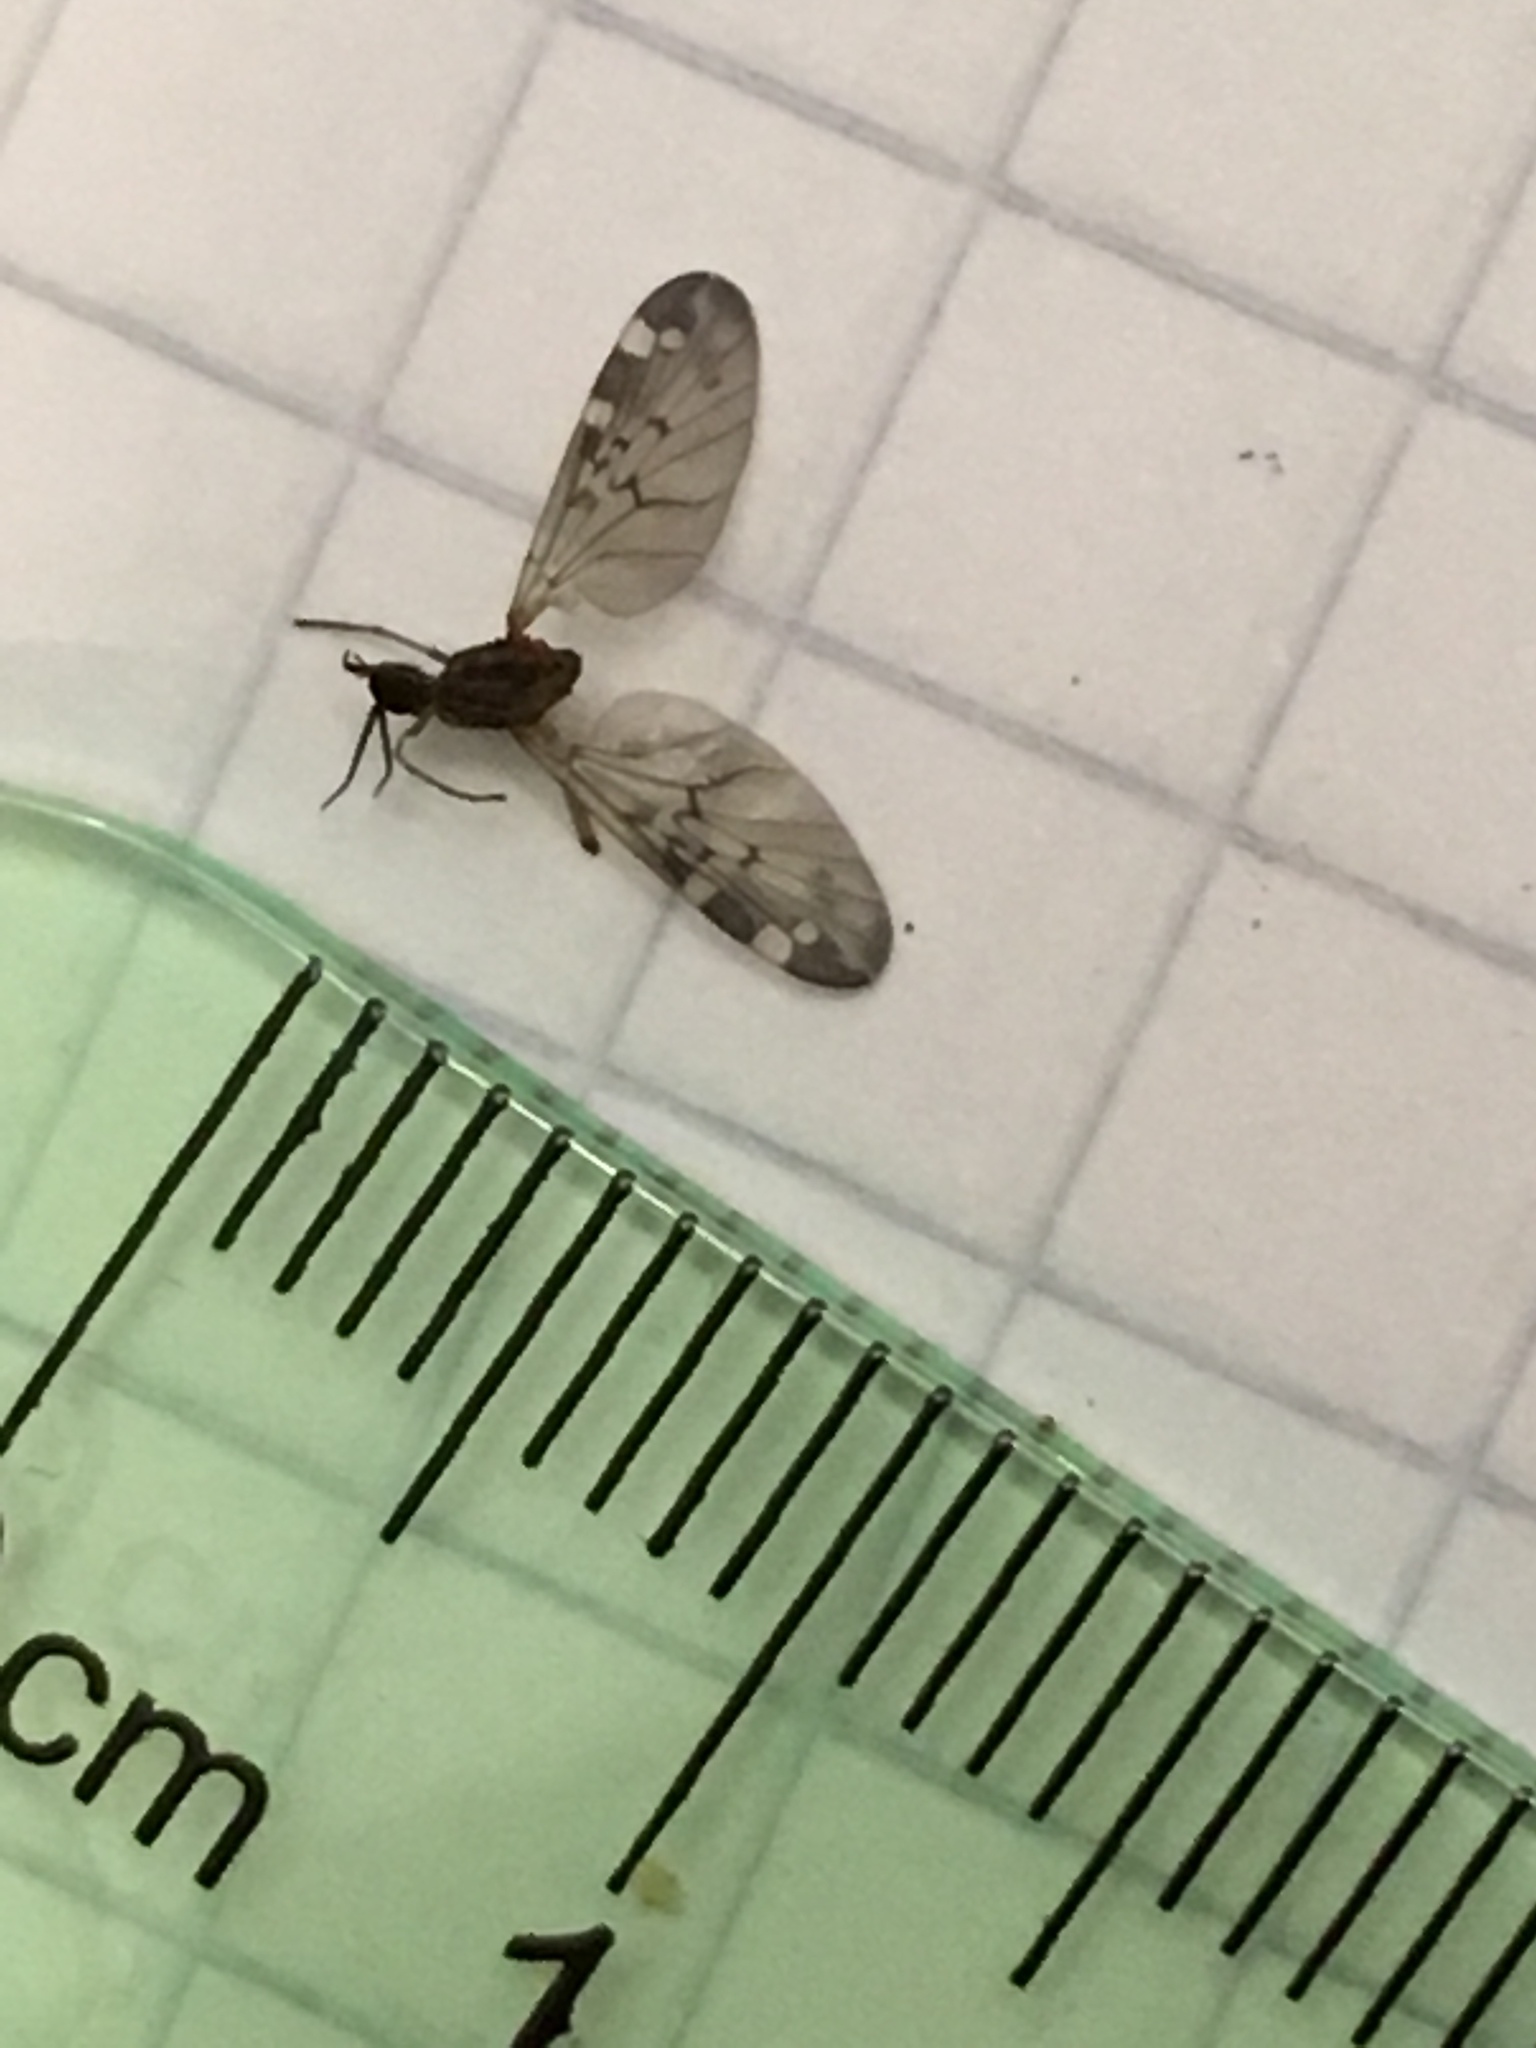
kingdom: Animalia
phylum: Arthropoda
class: Insecta
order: Diptera
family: Anisopodidae
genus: Sylvicola
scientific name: Sylvicola alternata
